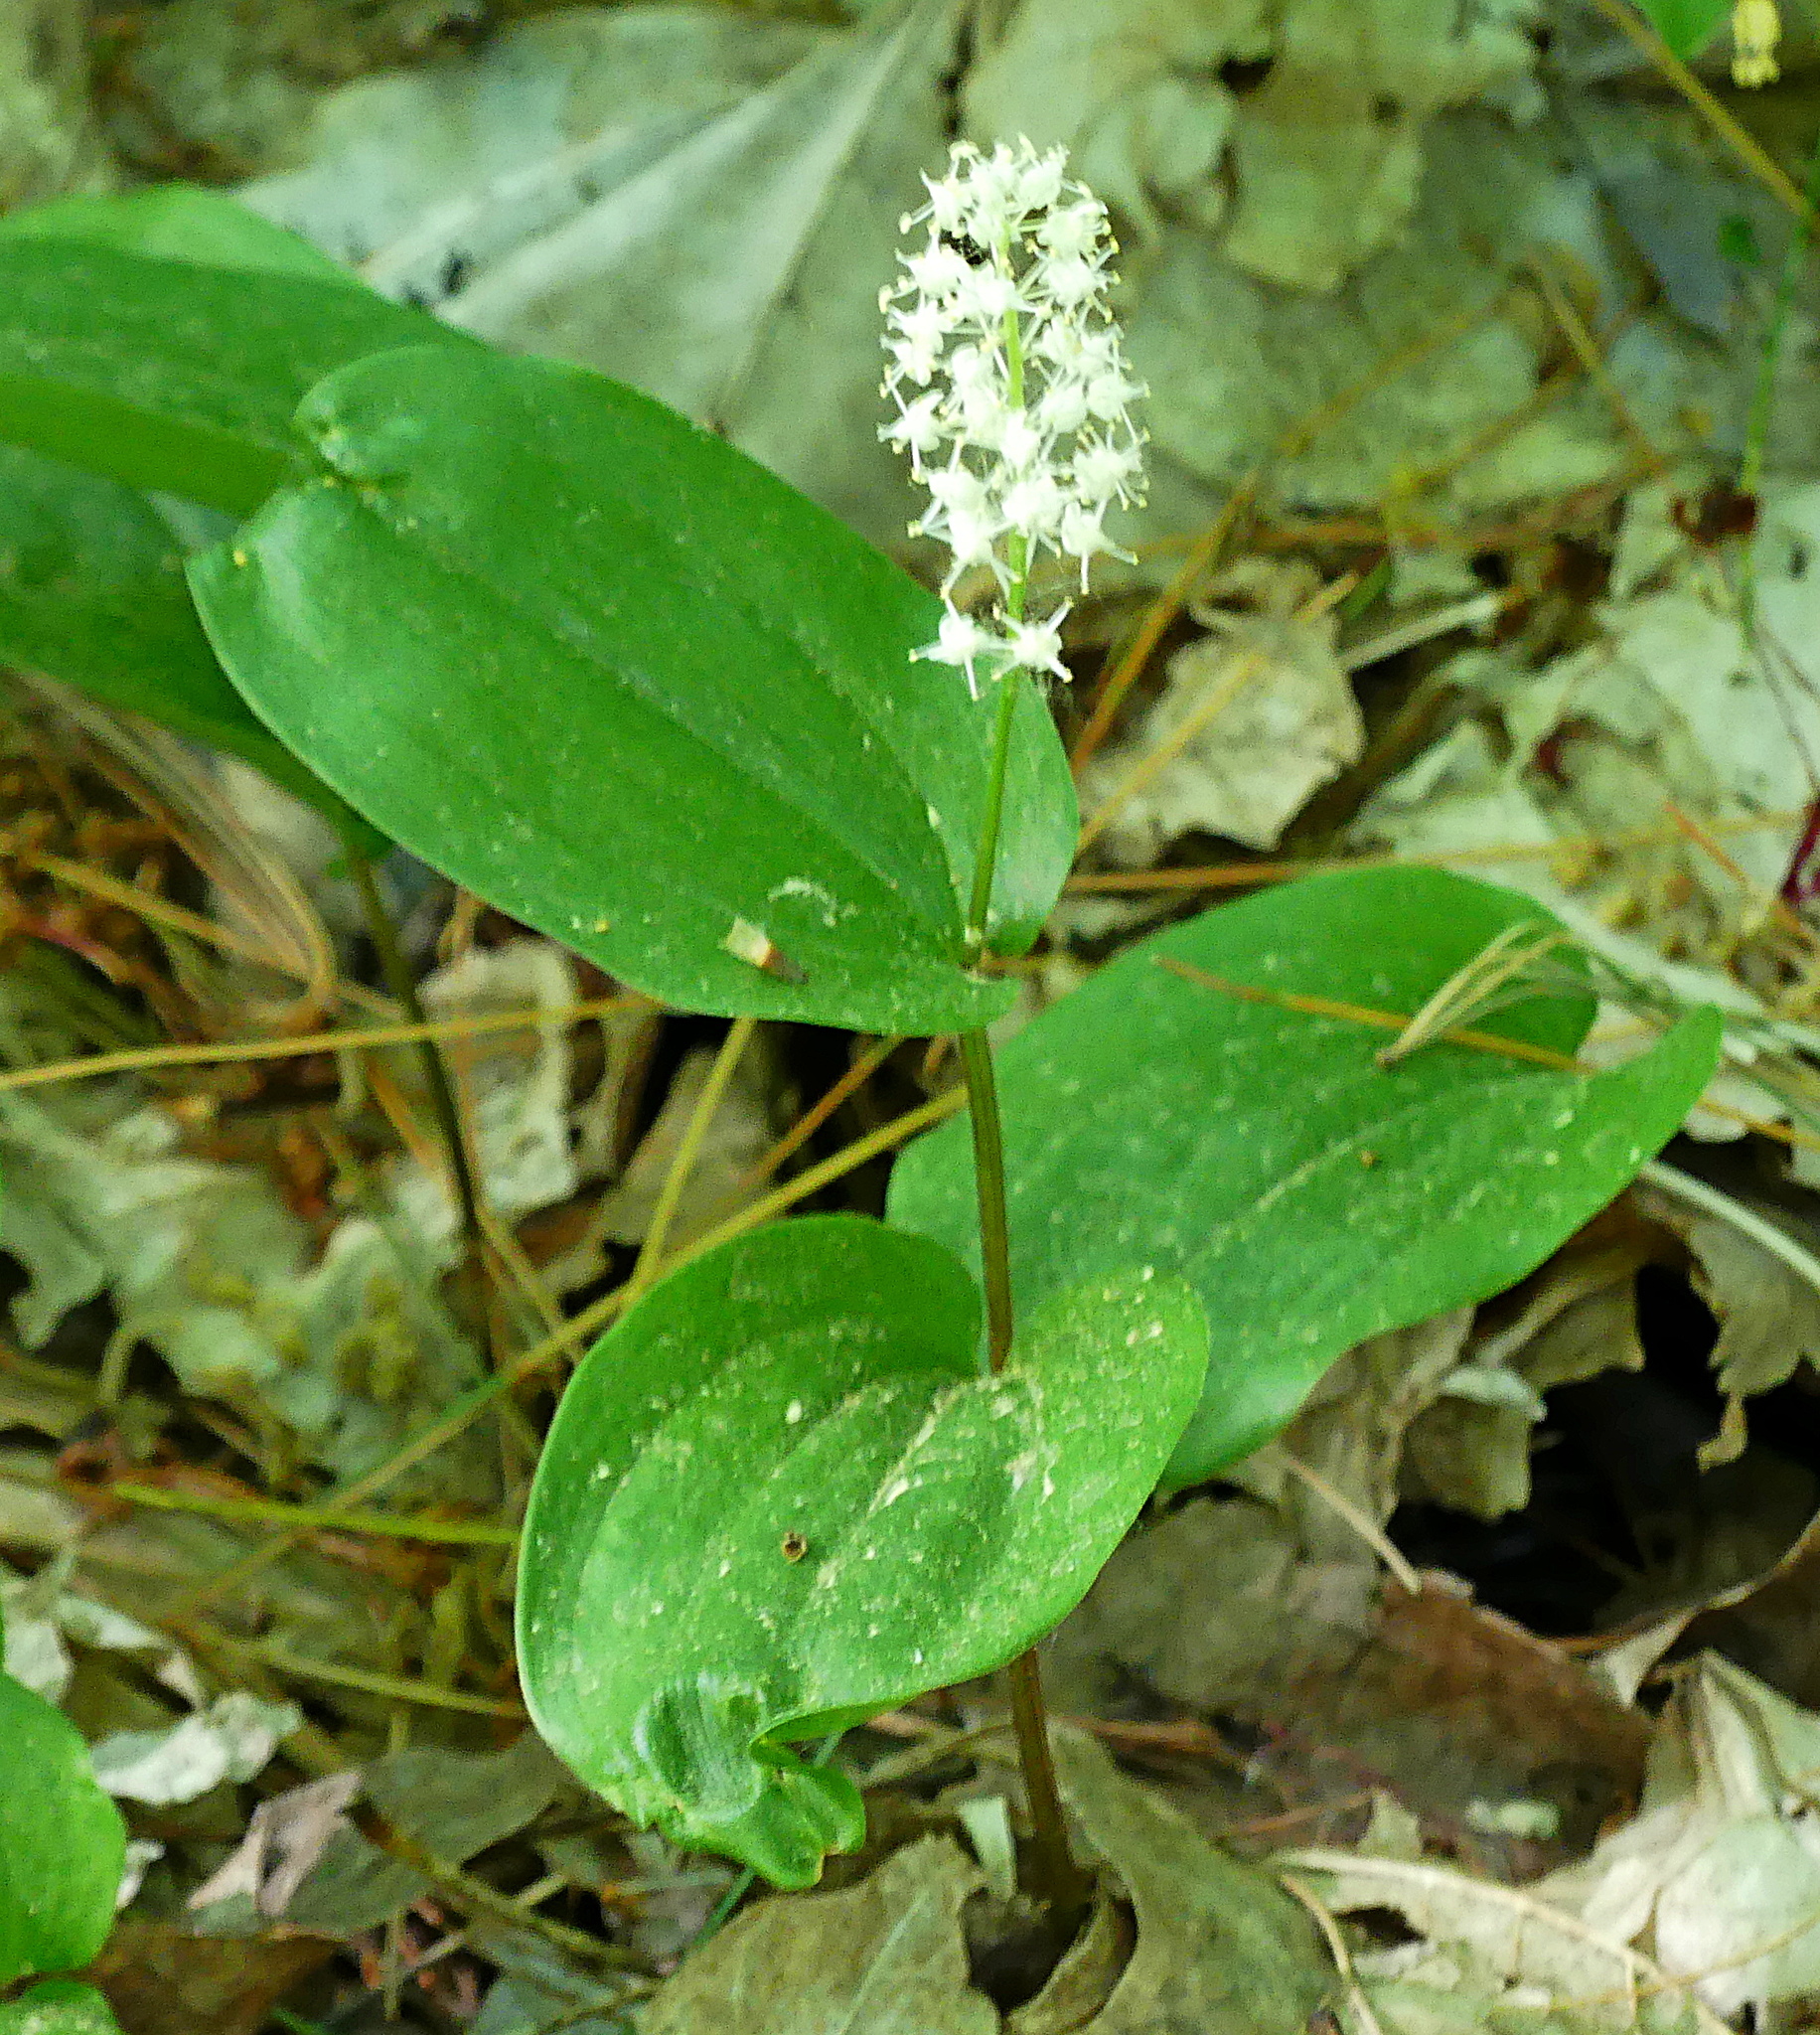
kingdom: Plantae
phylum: Tracheophyta
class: Liliopsida
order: Asparagales
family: Asparagaceae
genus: Maianthemum
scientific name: Maianthemum canadense
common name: False lily-of-the-valley
